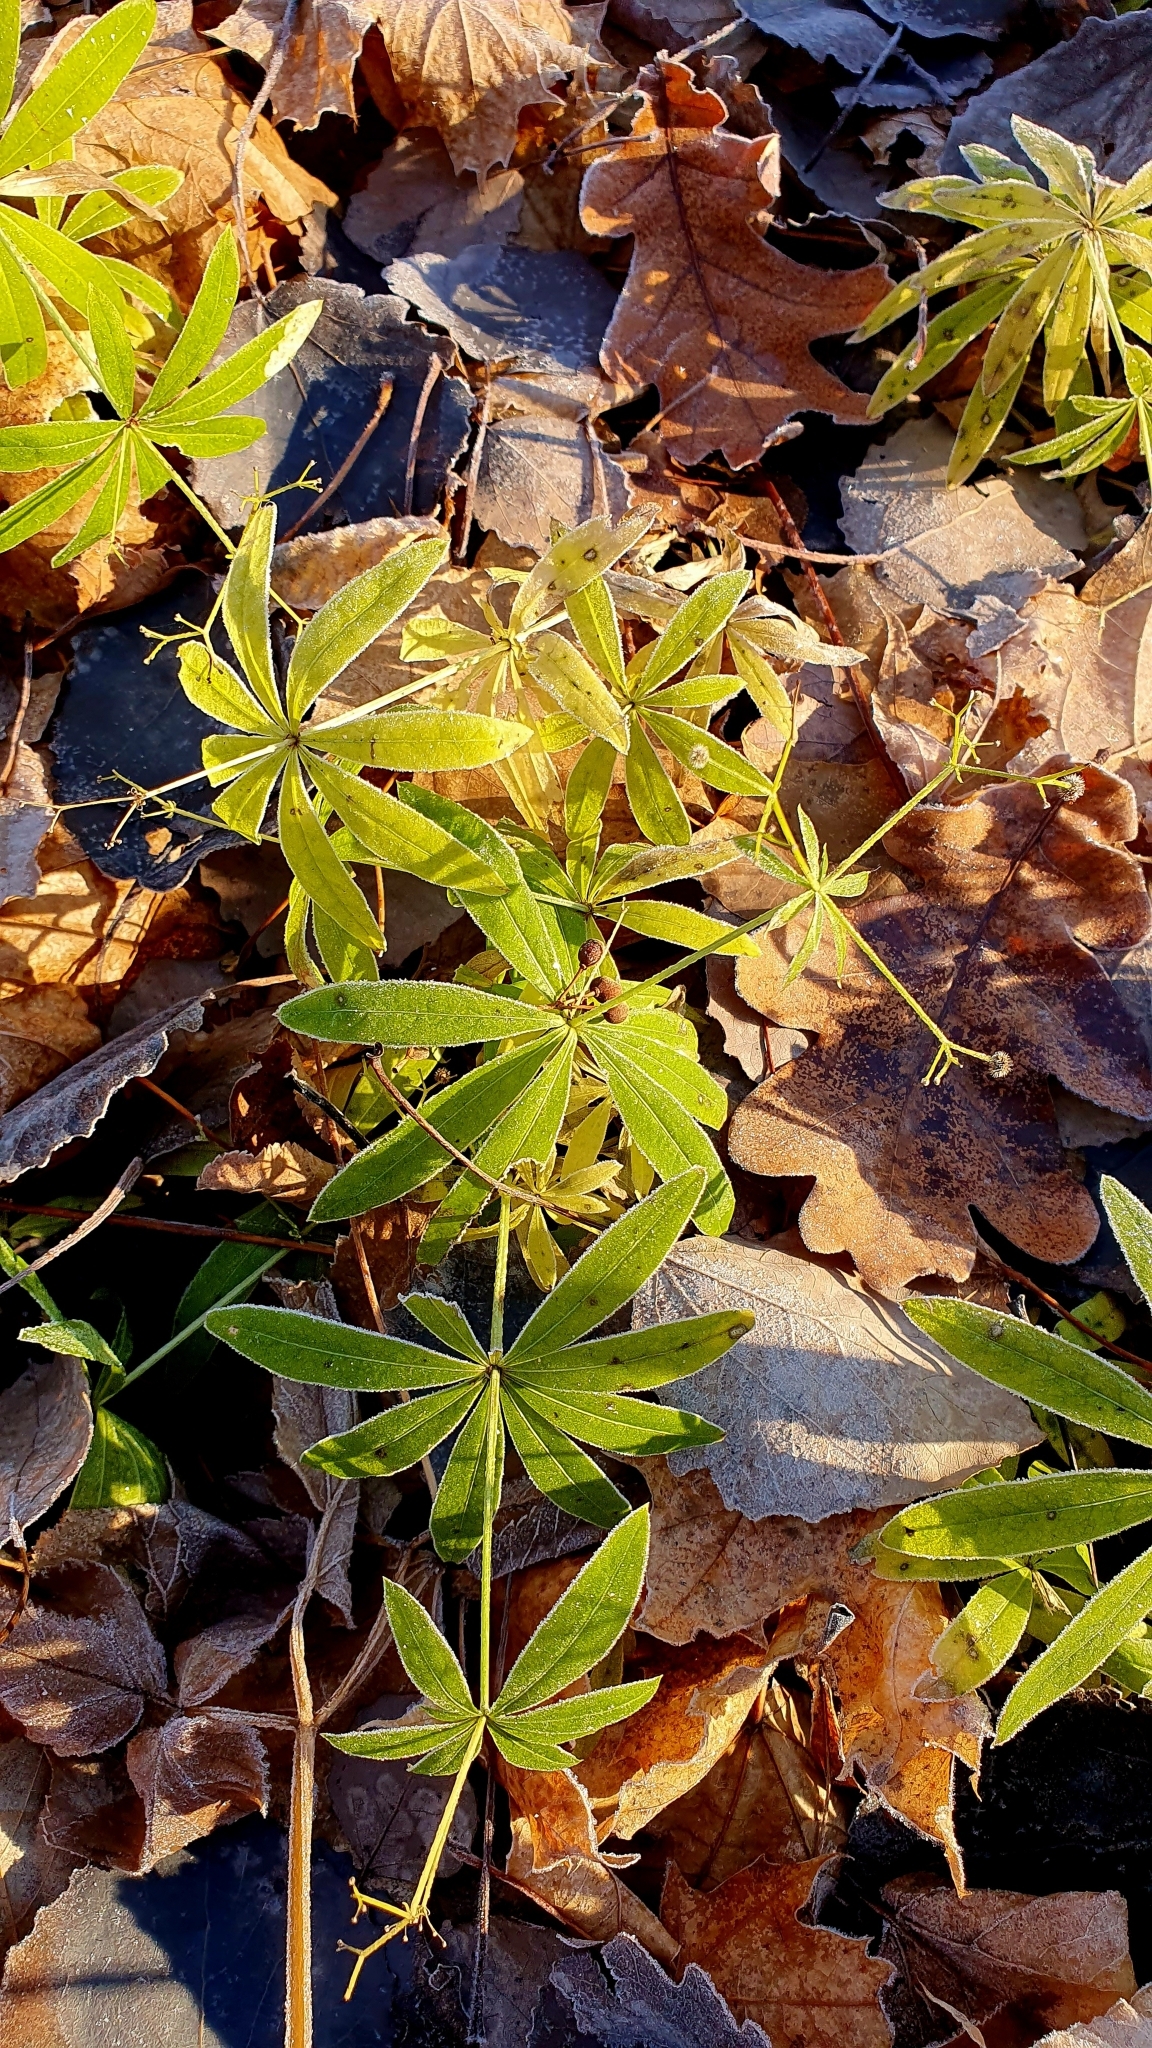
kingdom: Plantae
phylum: Tracheophyta
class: Magnoliopsida
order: Gentianales
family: Rubiaceae
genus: Galium
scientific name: Galium odoratum
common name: Sweet woodruff
